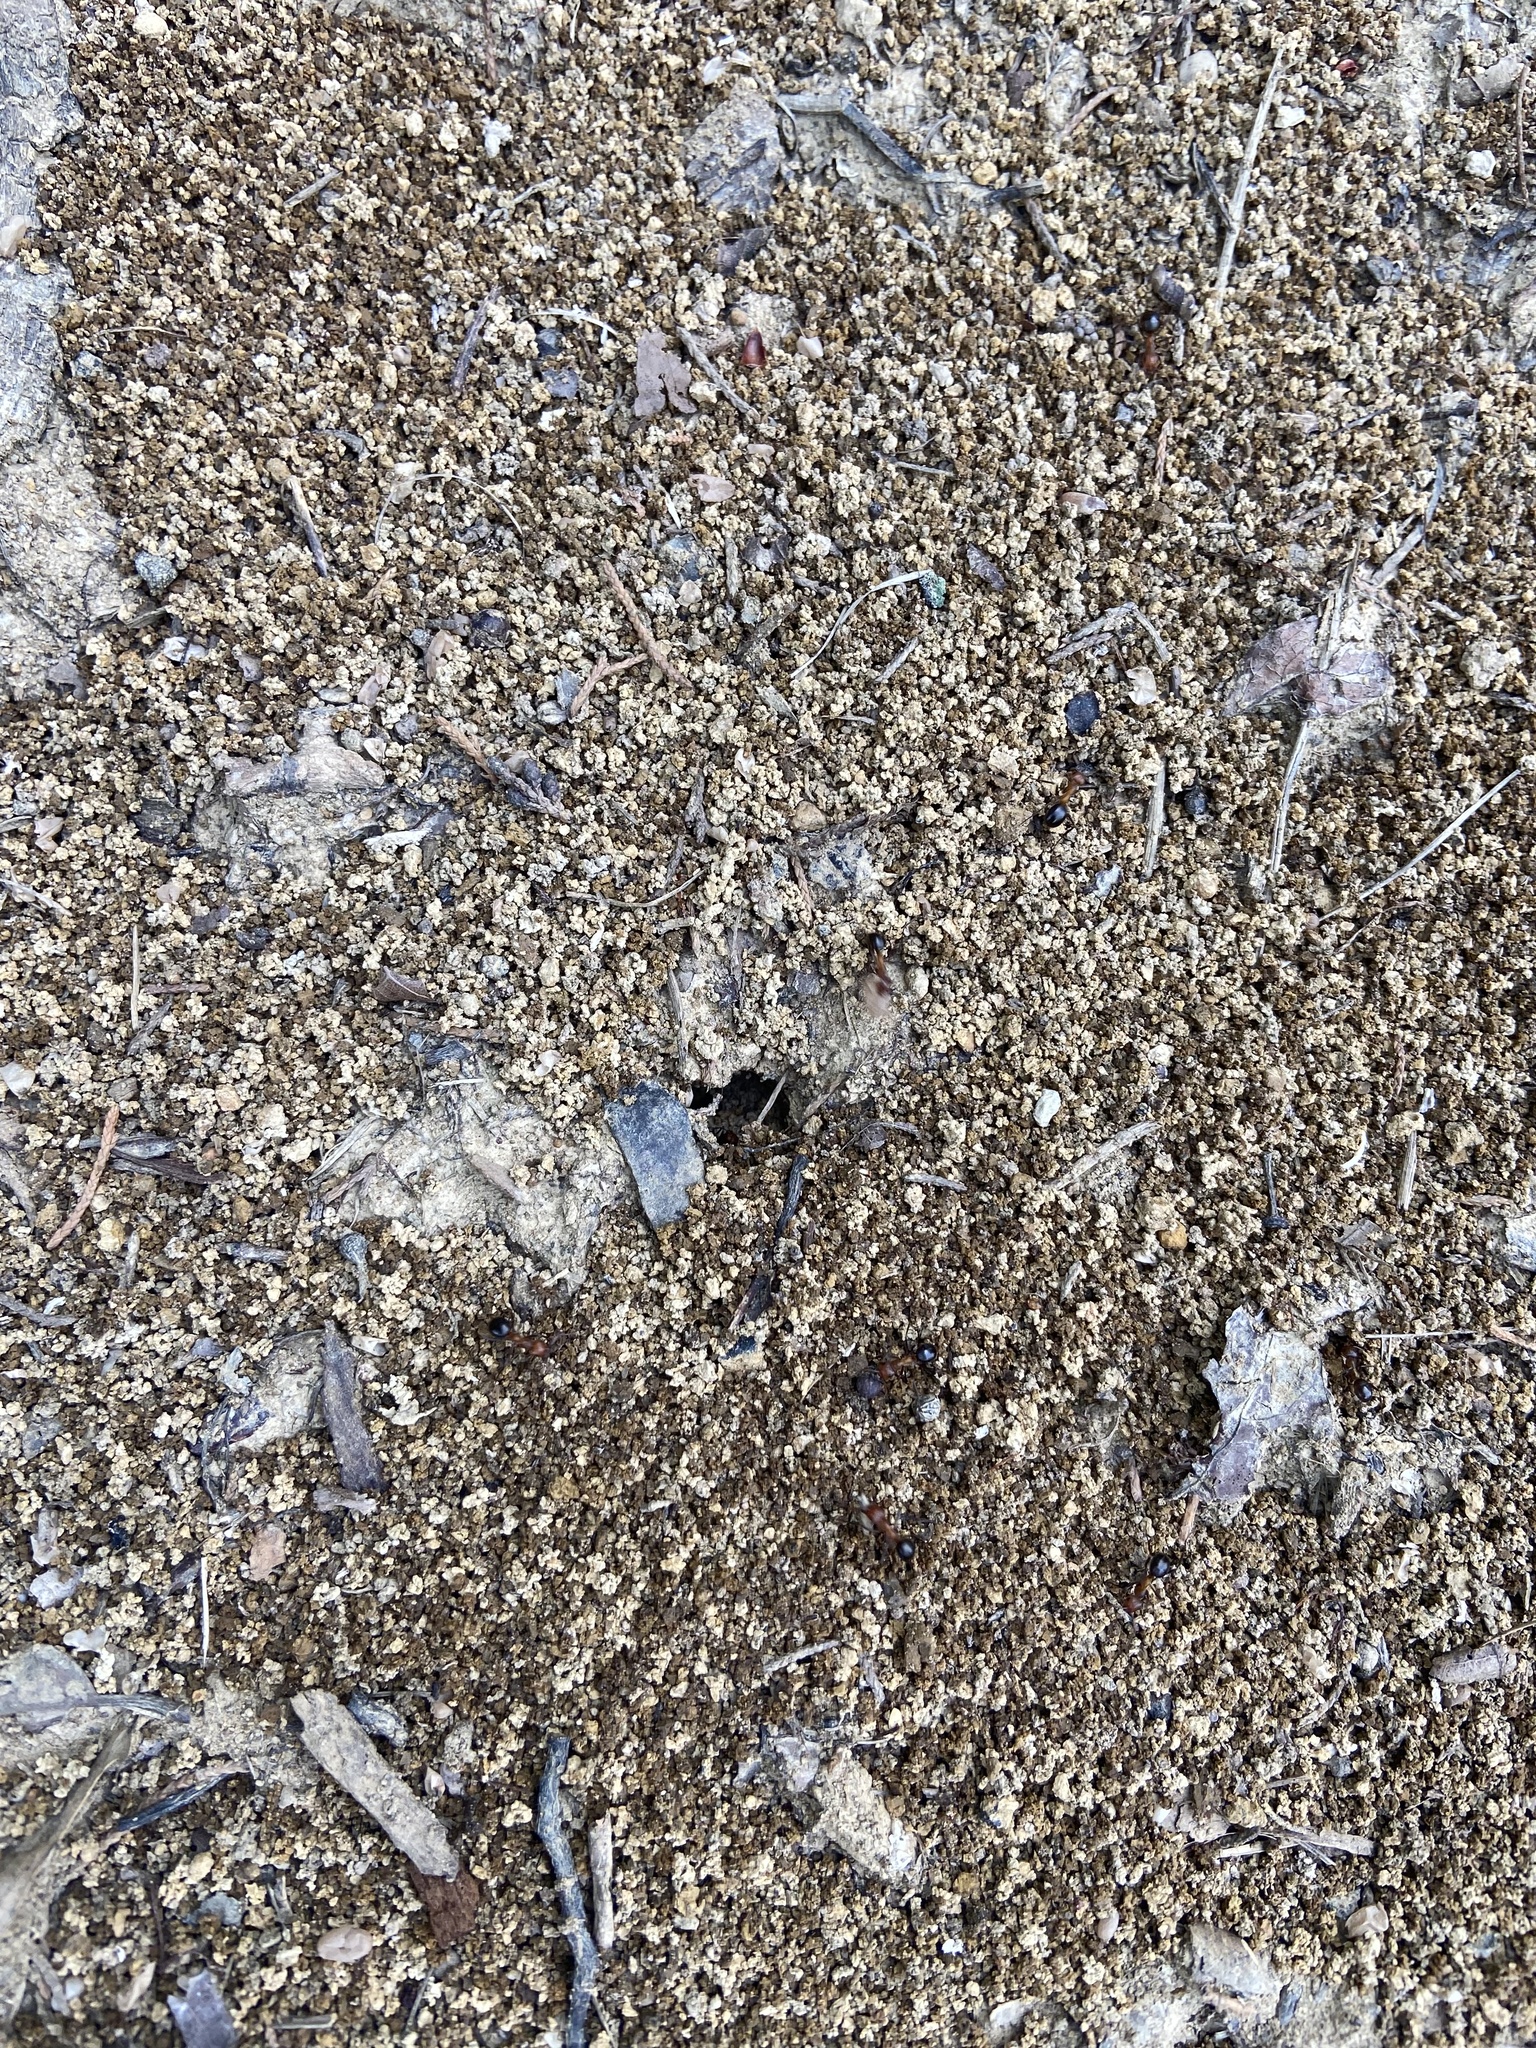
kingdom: Animalia
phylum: Arthropoda
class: Insecta
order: Hymenoptera
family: Formicidae
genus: Formica
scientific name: Formica exsectoides
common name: Allegheny mound ant
